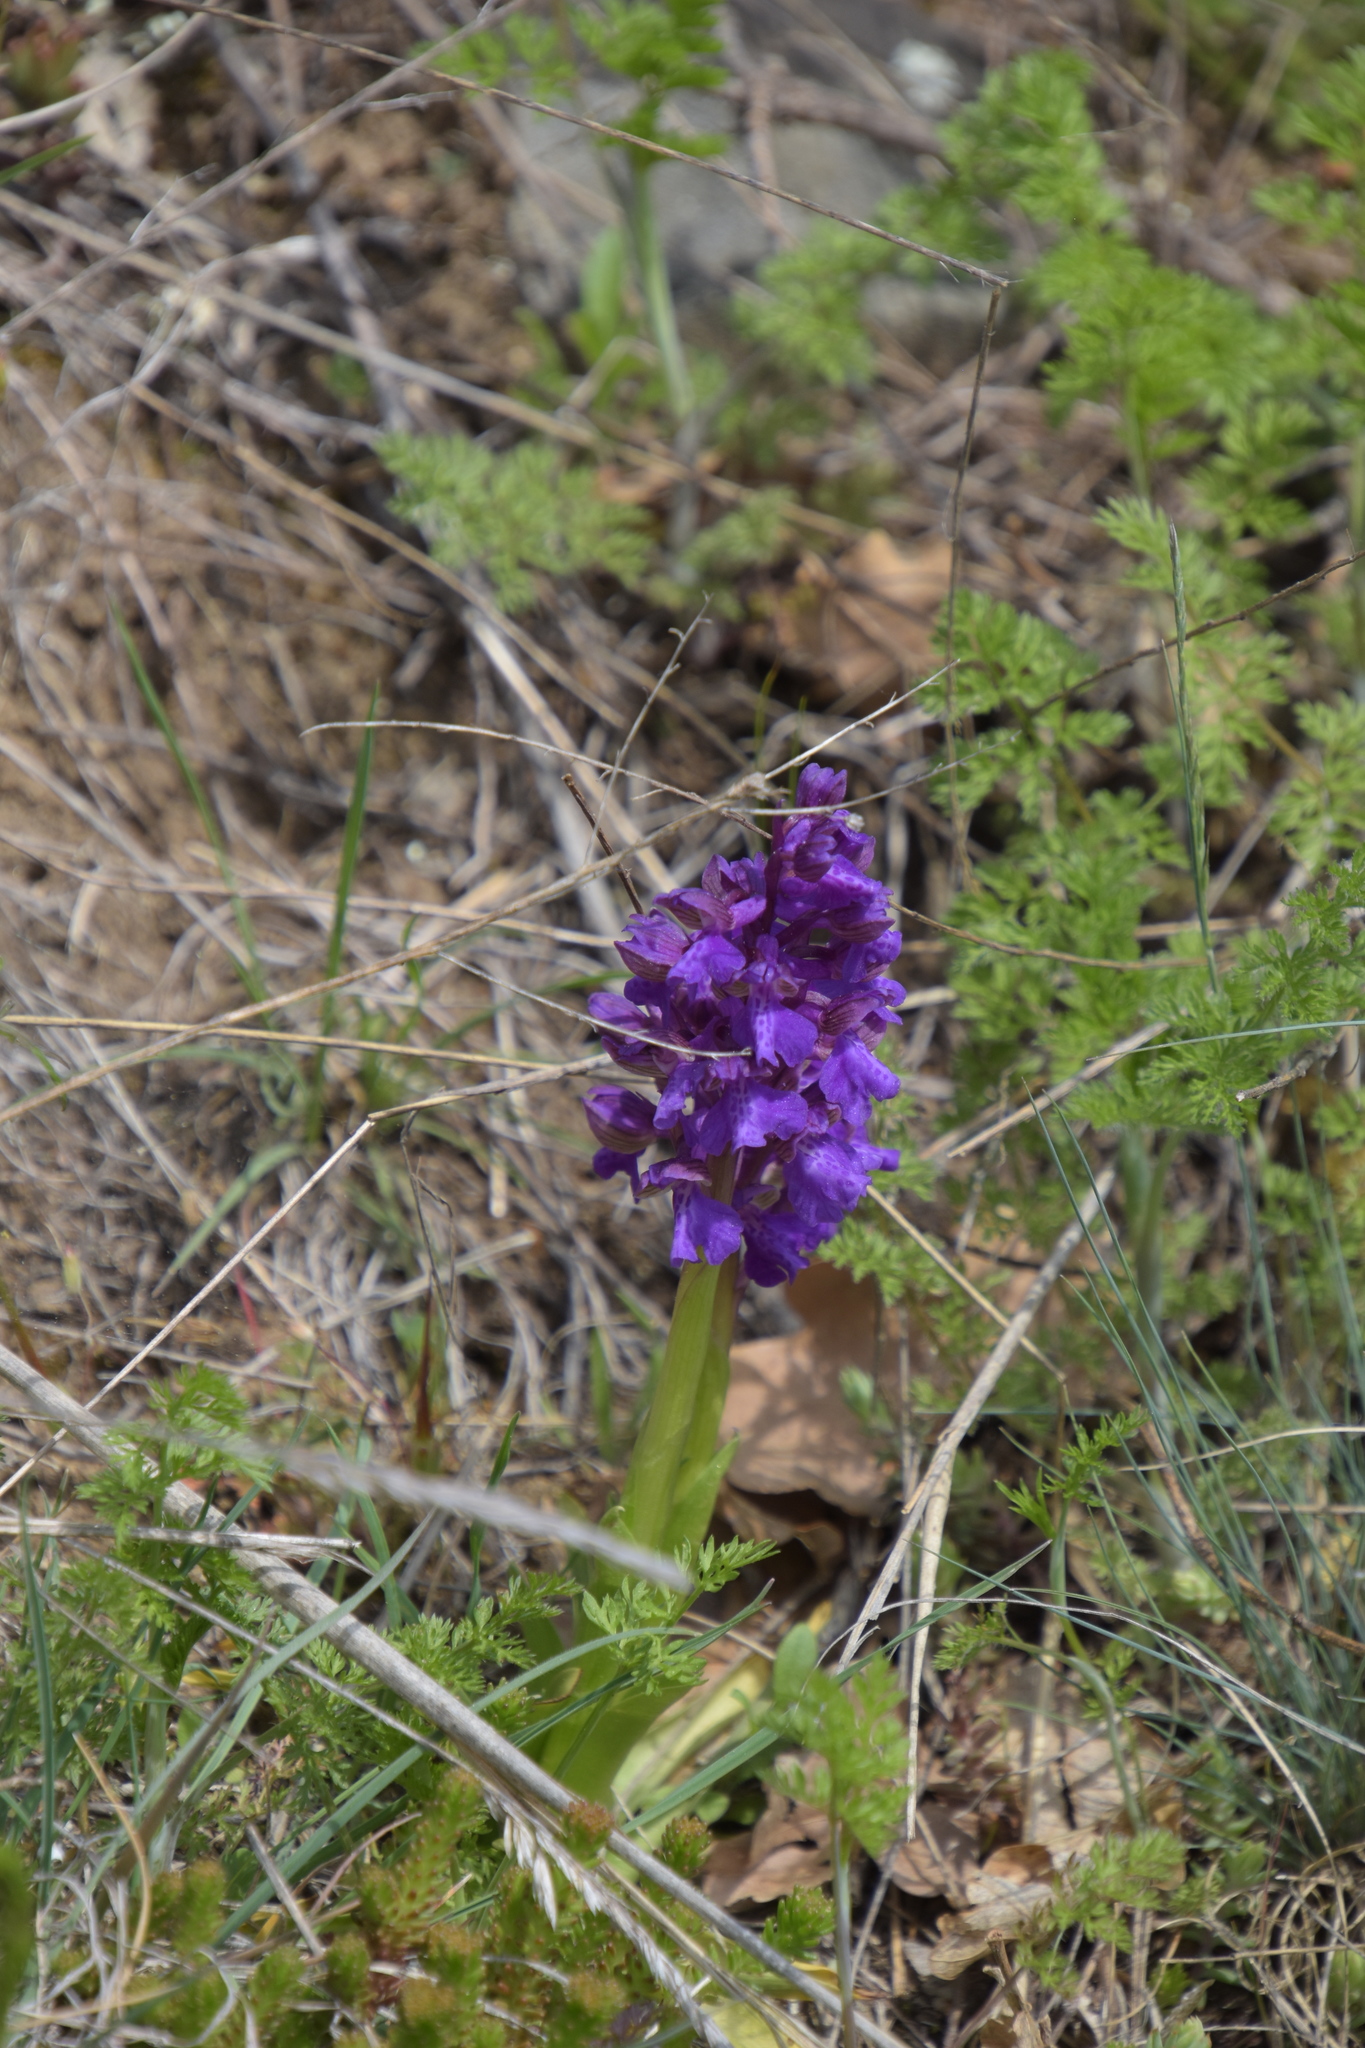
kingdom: Plantae
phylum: Tracheophyta
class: Liliopsida
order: Asparagales
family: Orchidaceae
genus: Anacamptis
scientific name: Anacamptis morio
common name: Green-winged orchid
